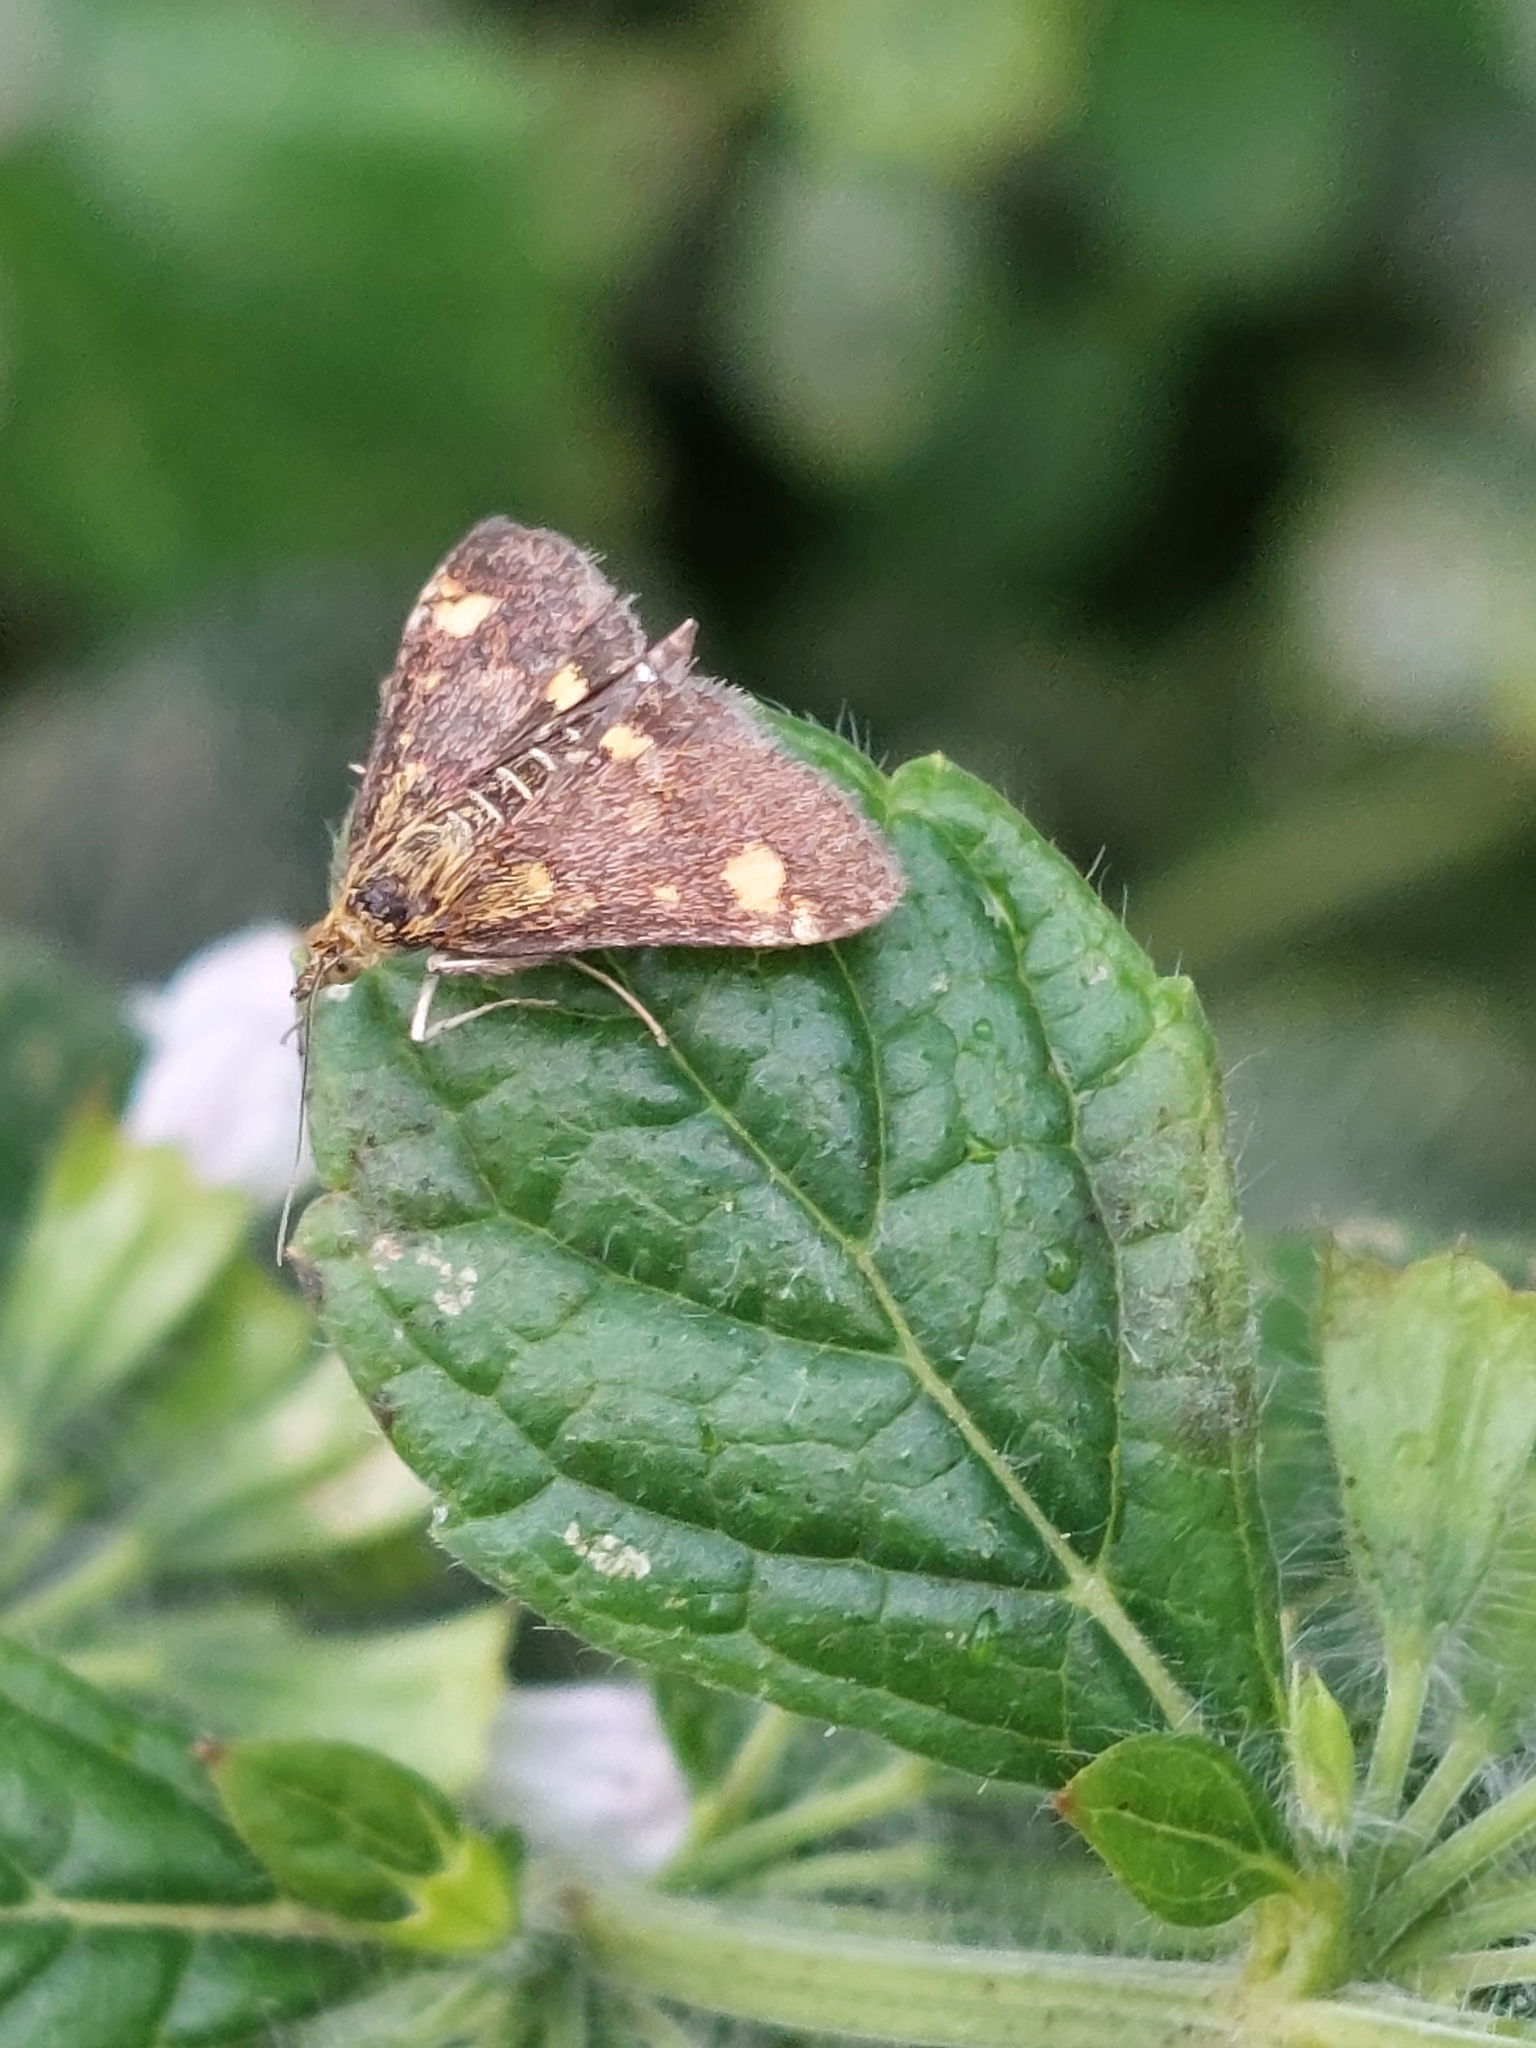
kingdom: Animalia
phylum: Arthropoda
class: Insecta
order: Lepidoptera
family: Crambidae
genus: Pyrausta
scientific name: Pyrausta aurata
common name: Small purple & gold
